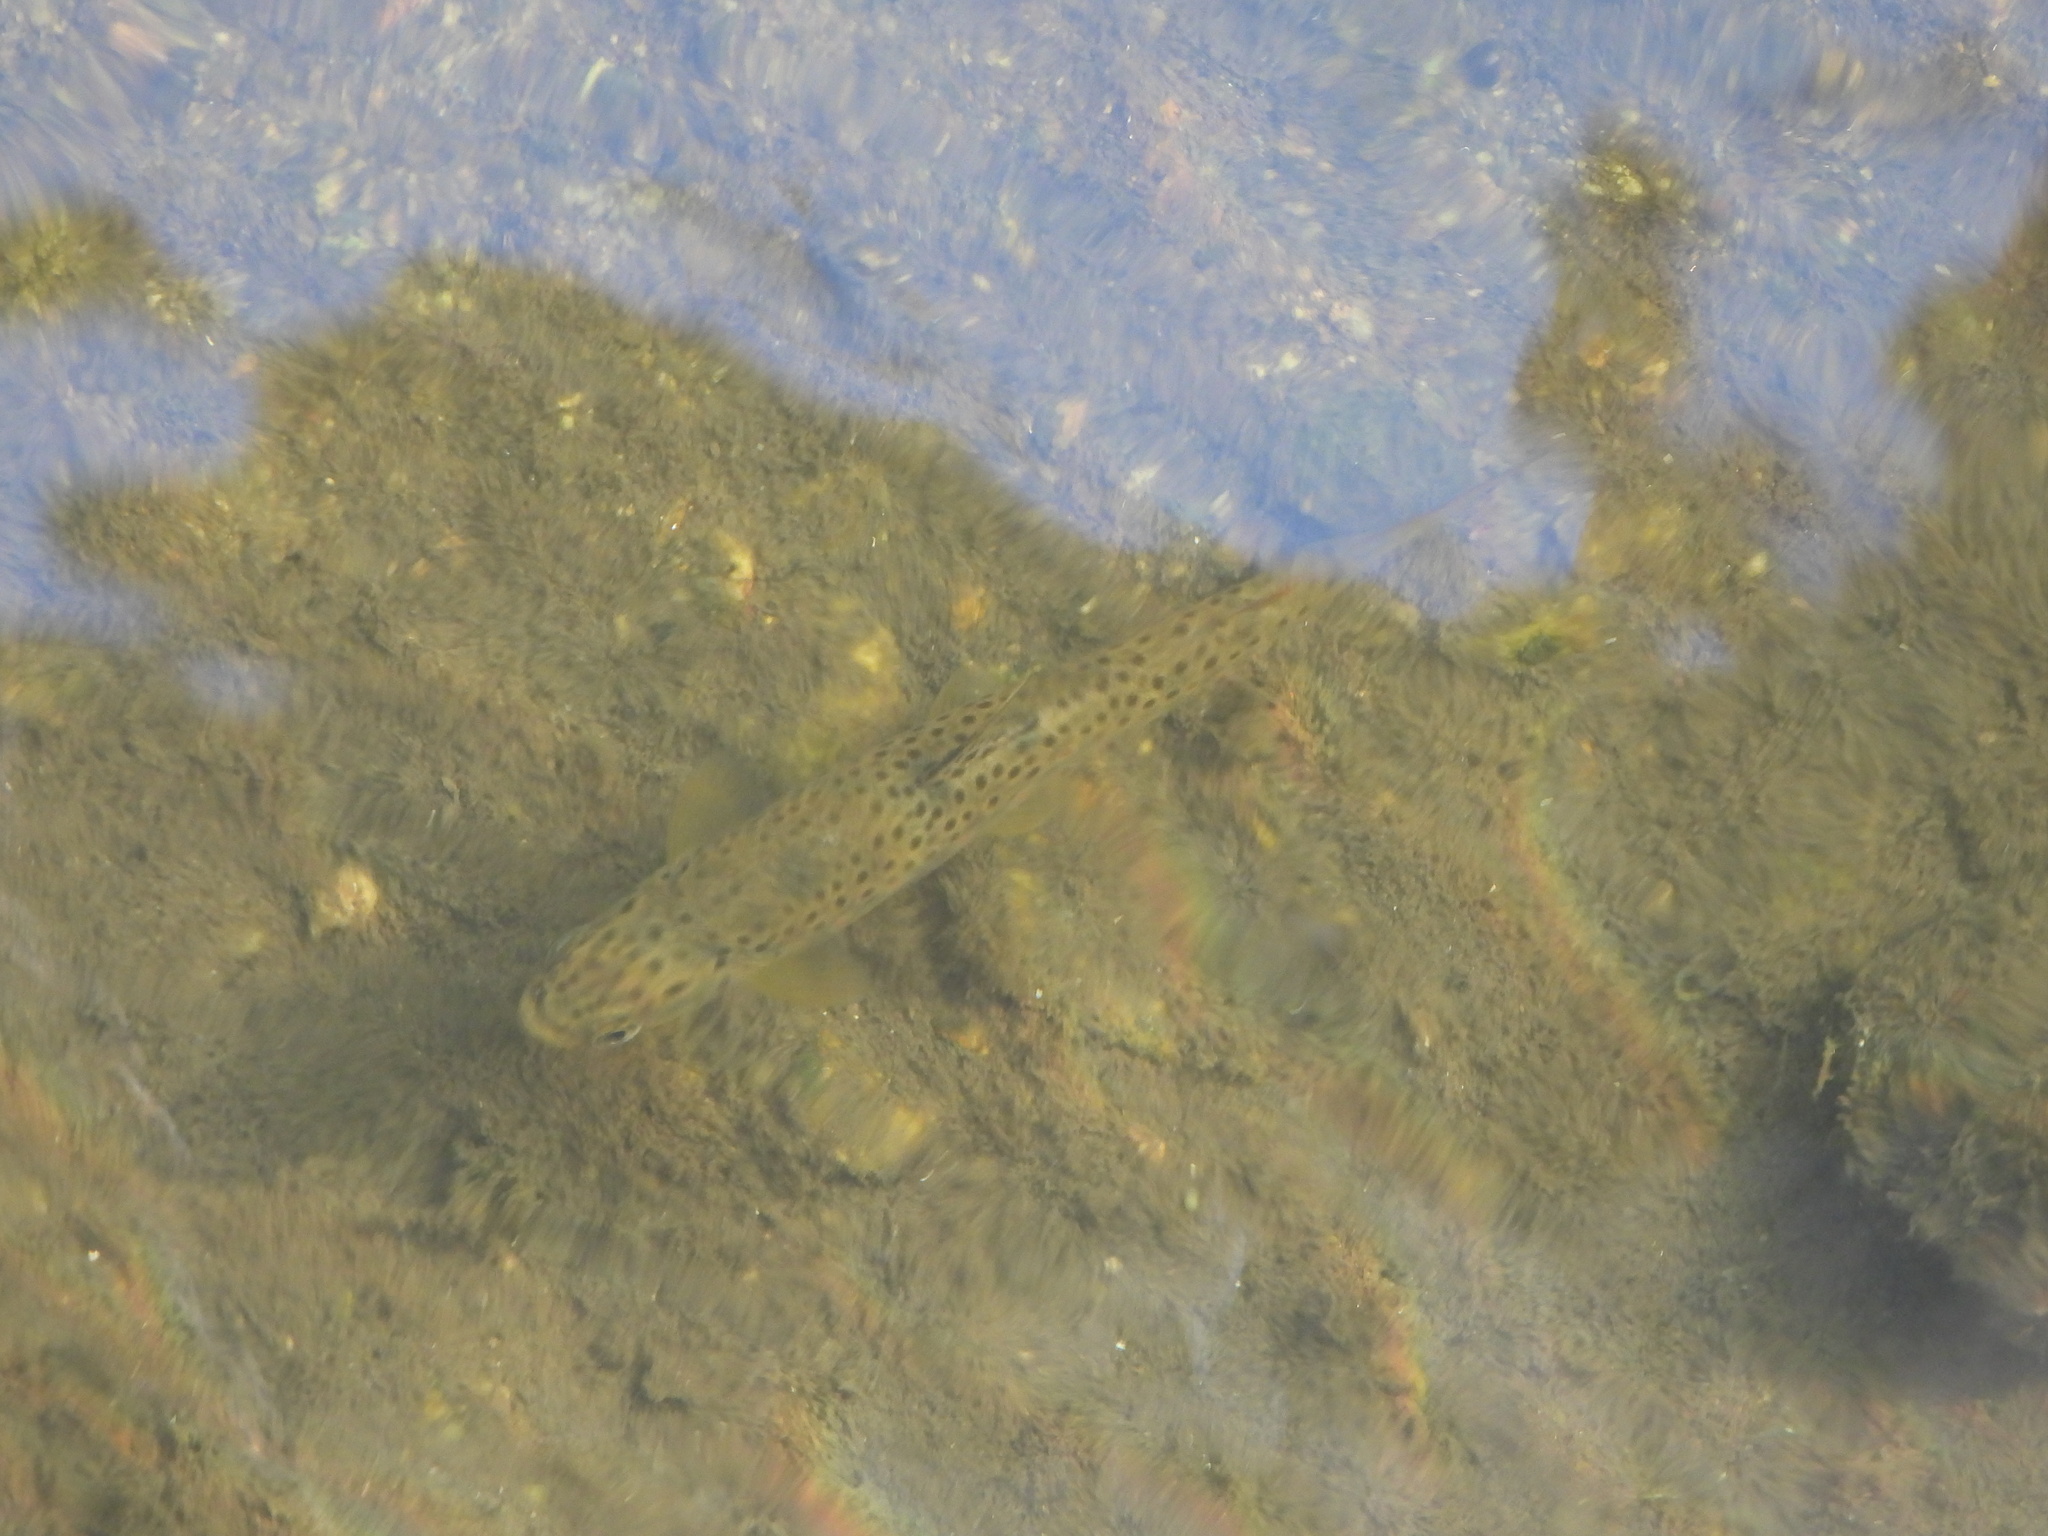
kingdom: Animalia
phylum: Chordata
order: Salmoniformes
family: Salmonidae
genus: Salmo
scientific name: Salmo trutta
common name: Brown trout
